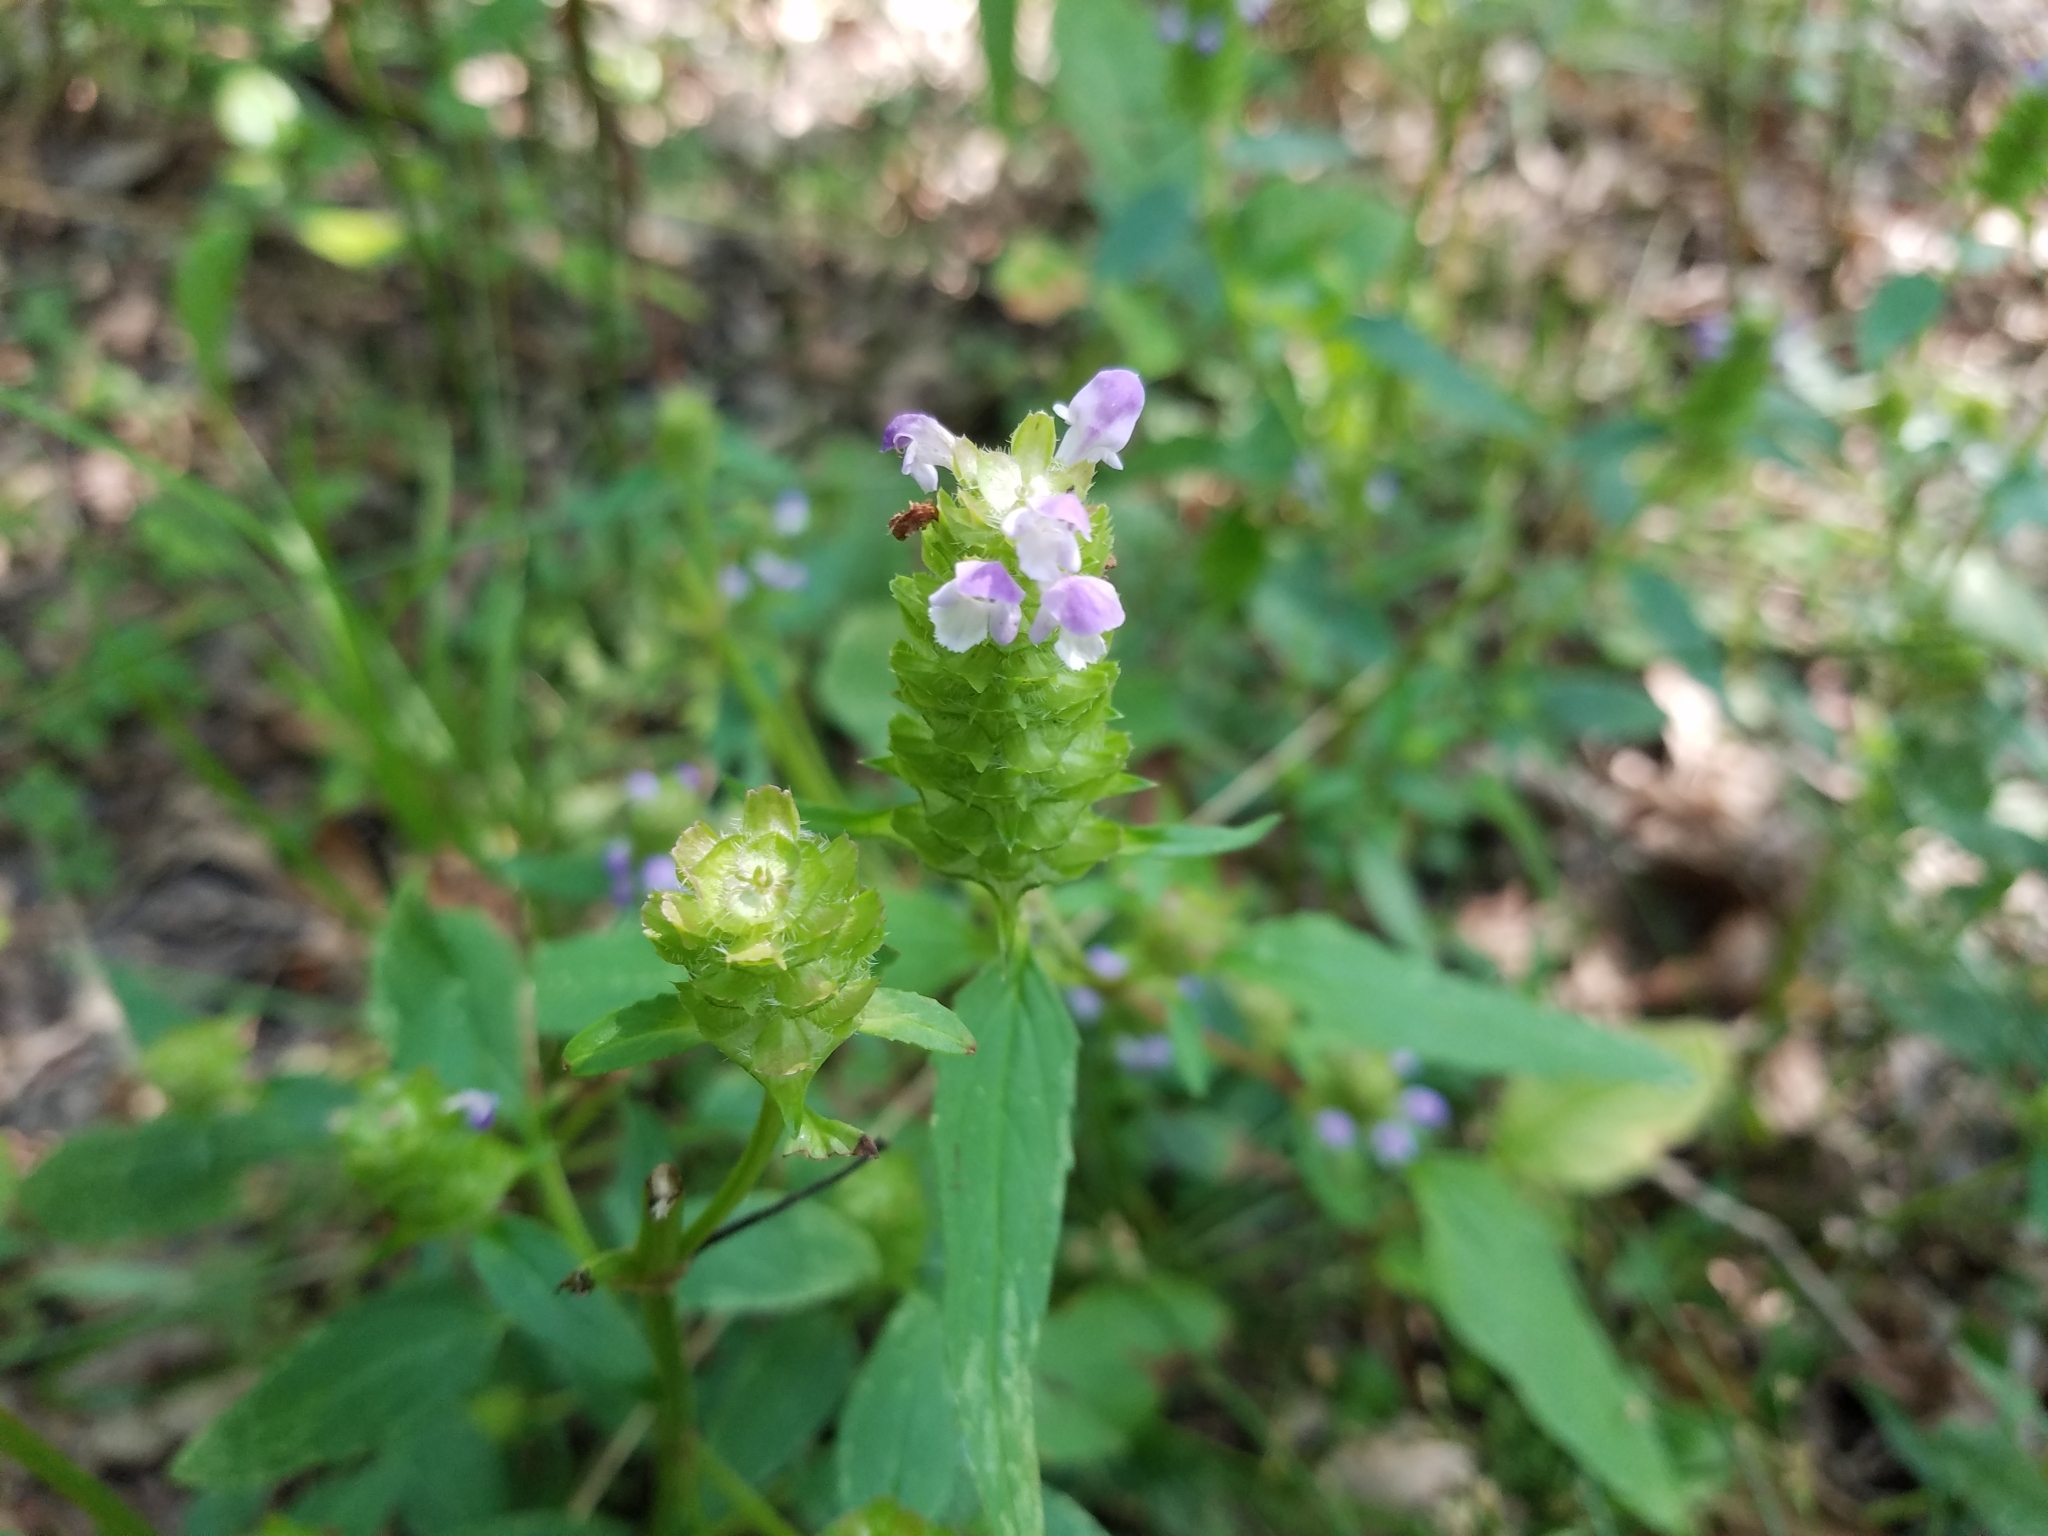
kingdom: Plantae
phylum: Tracheophyta
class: Magnoliopsida
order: Lamiales
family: Lamiaceae
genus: Prunella
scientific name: Prunella vulgaris
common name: Heal-all
